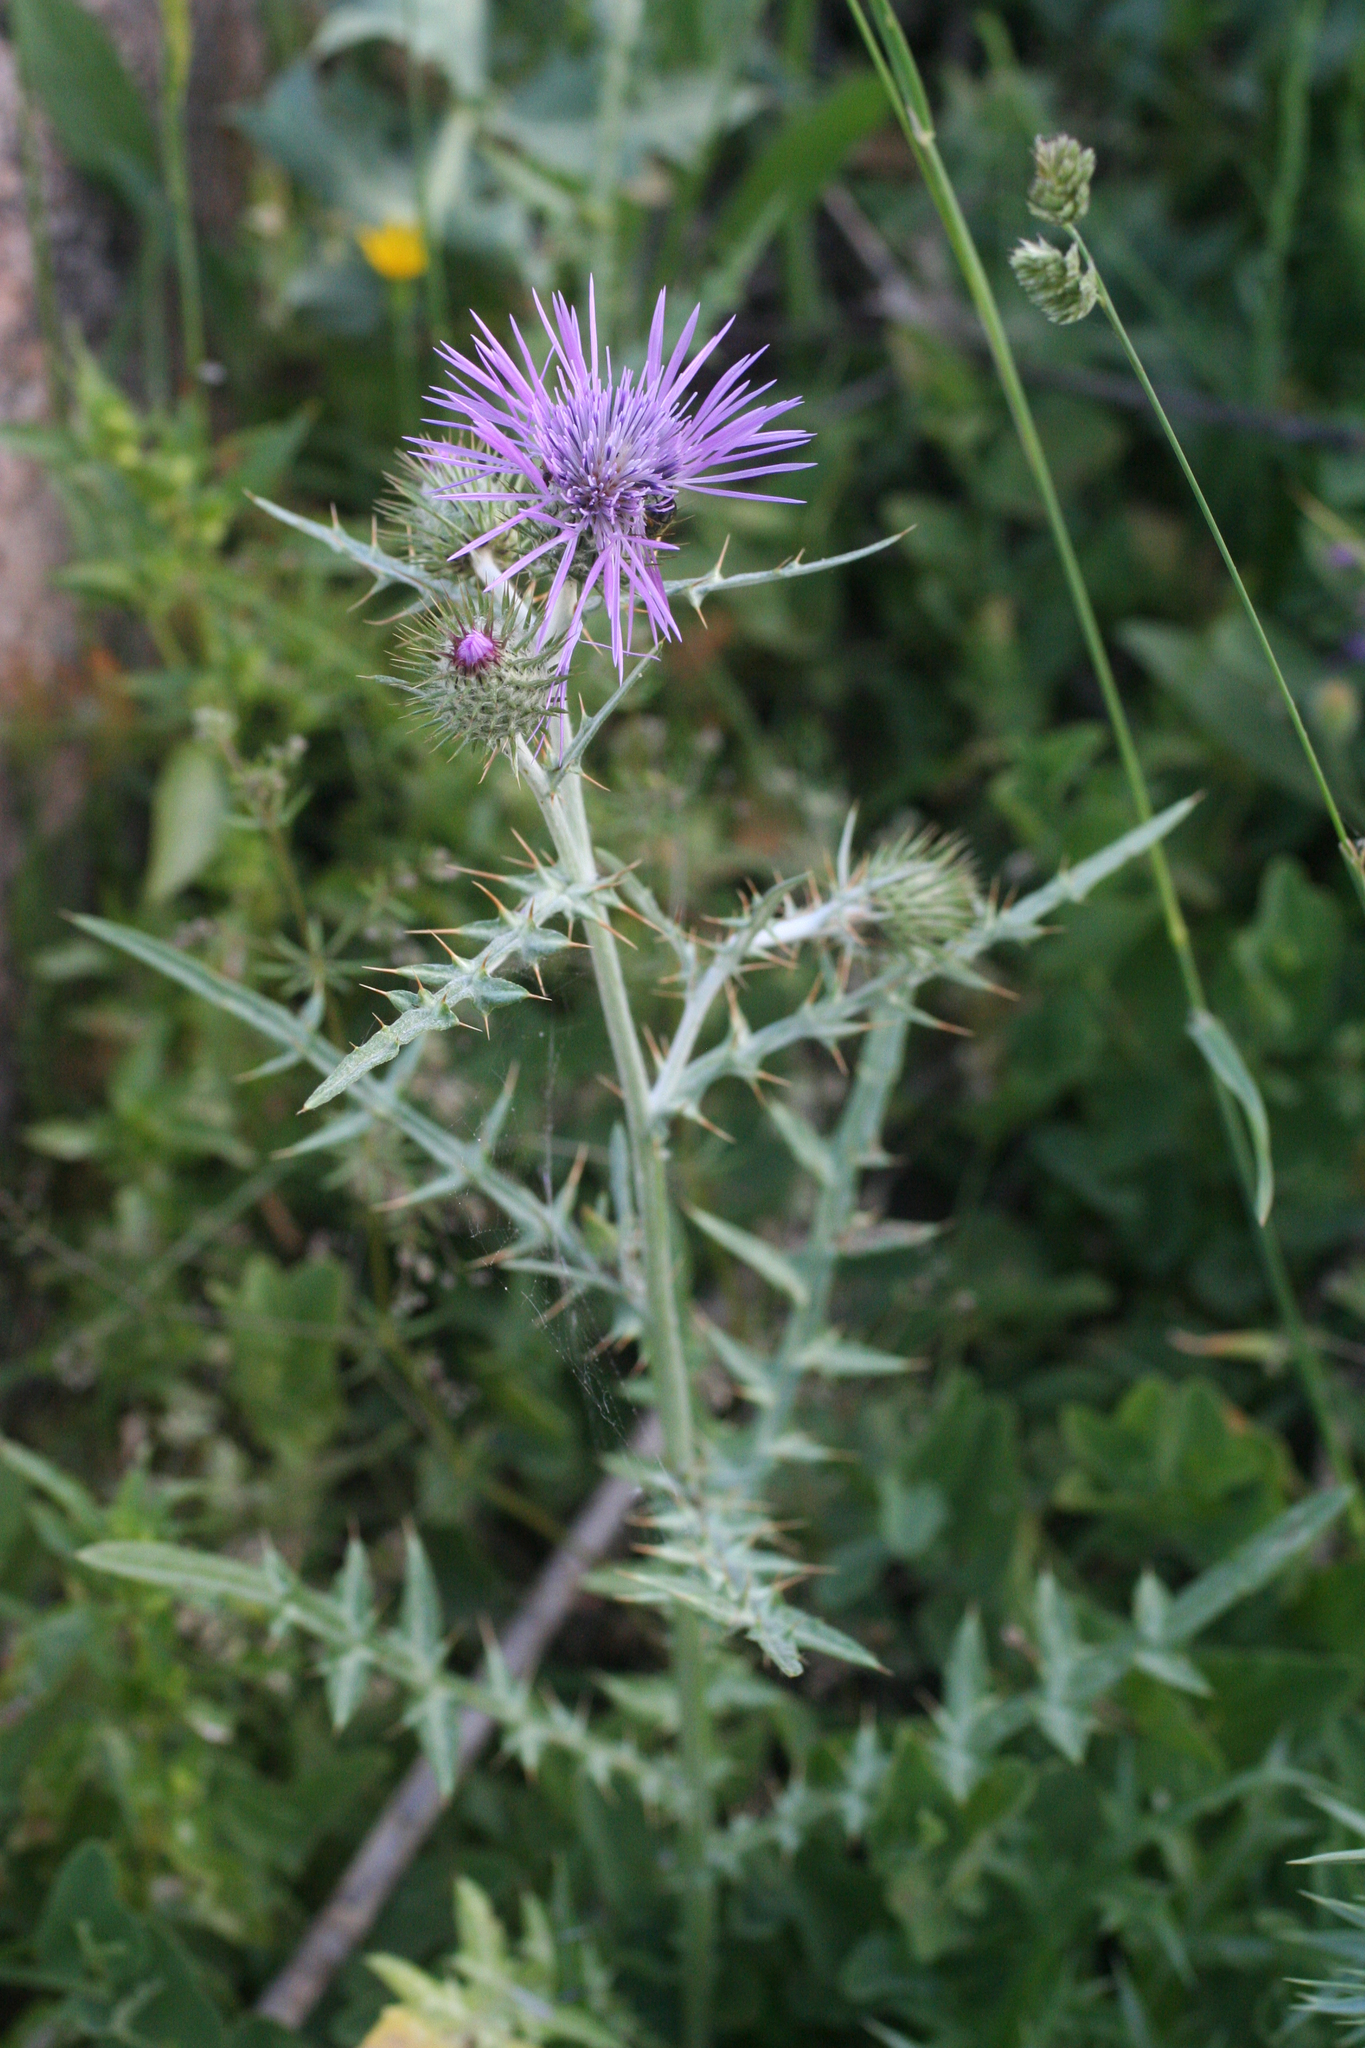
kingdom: Plantae
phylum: Tracheophyta
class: Magnoliopsida
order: Asterales
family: Asteraceae
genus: Galactites
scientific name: Galactites tomentosa
